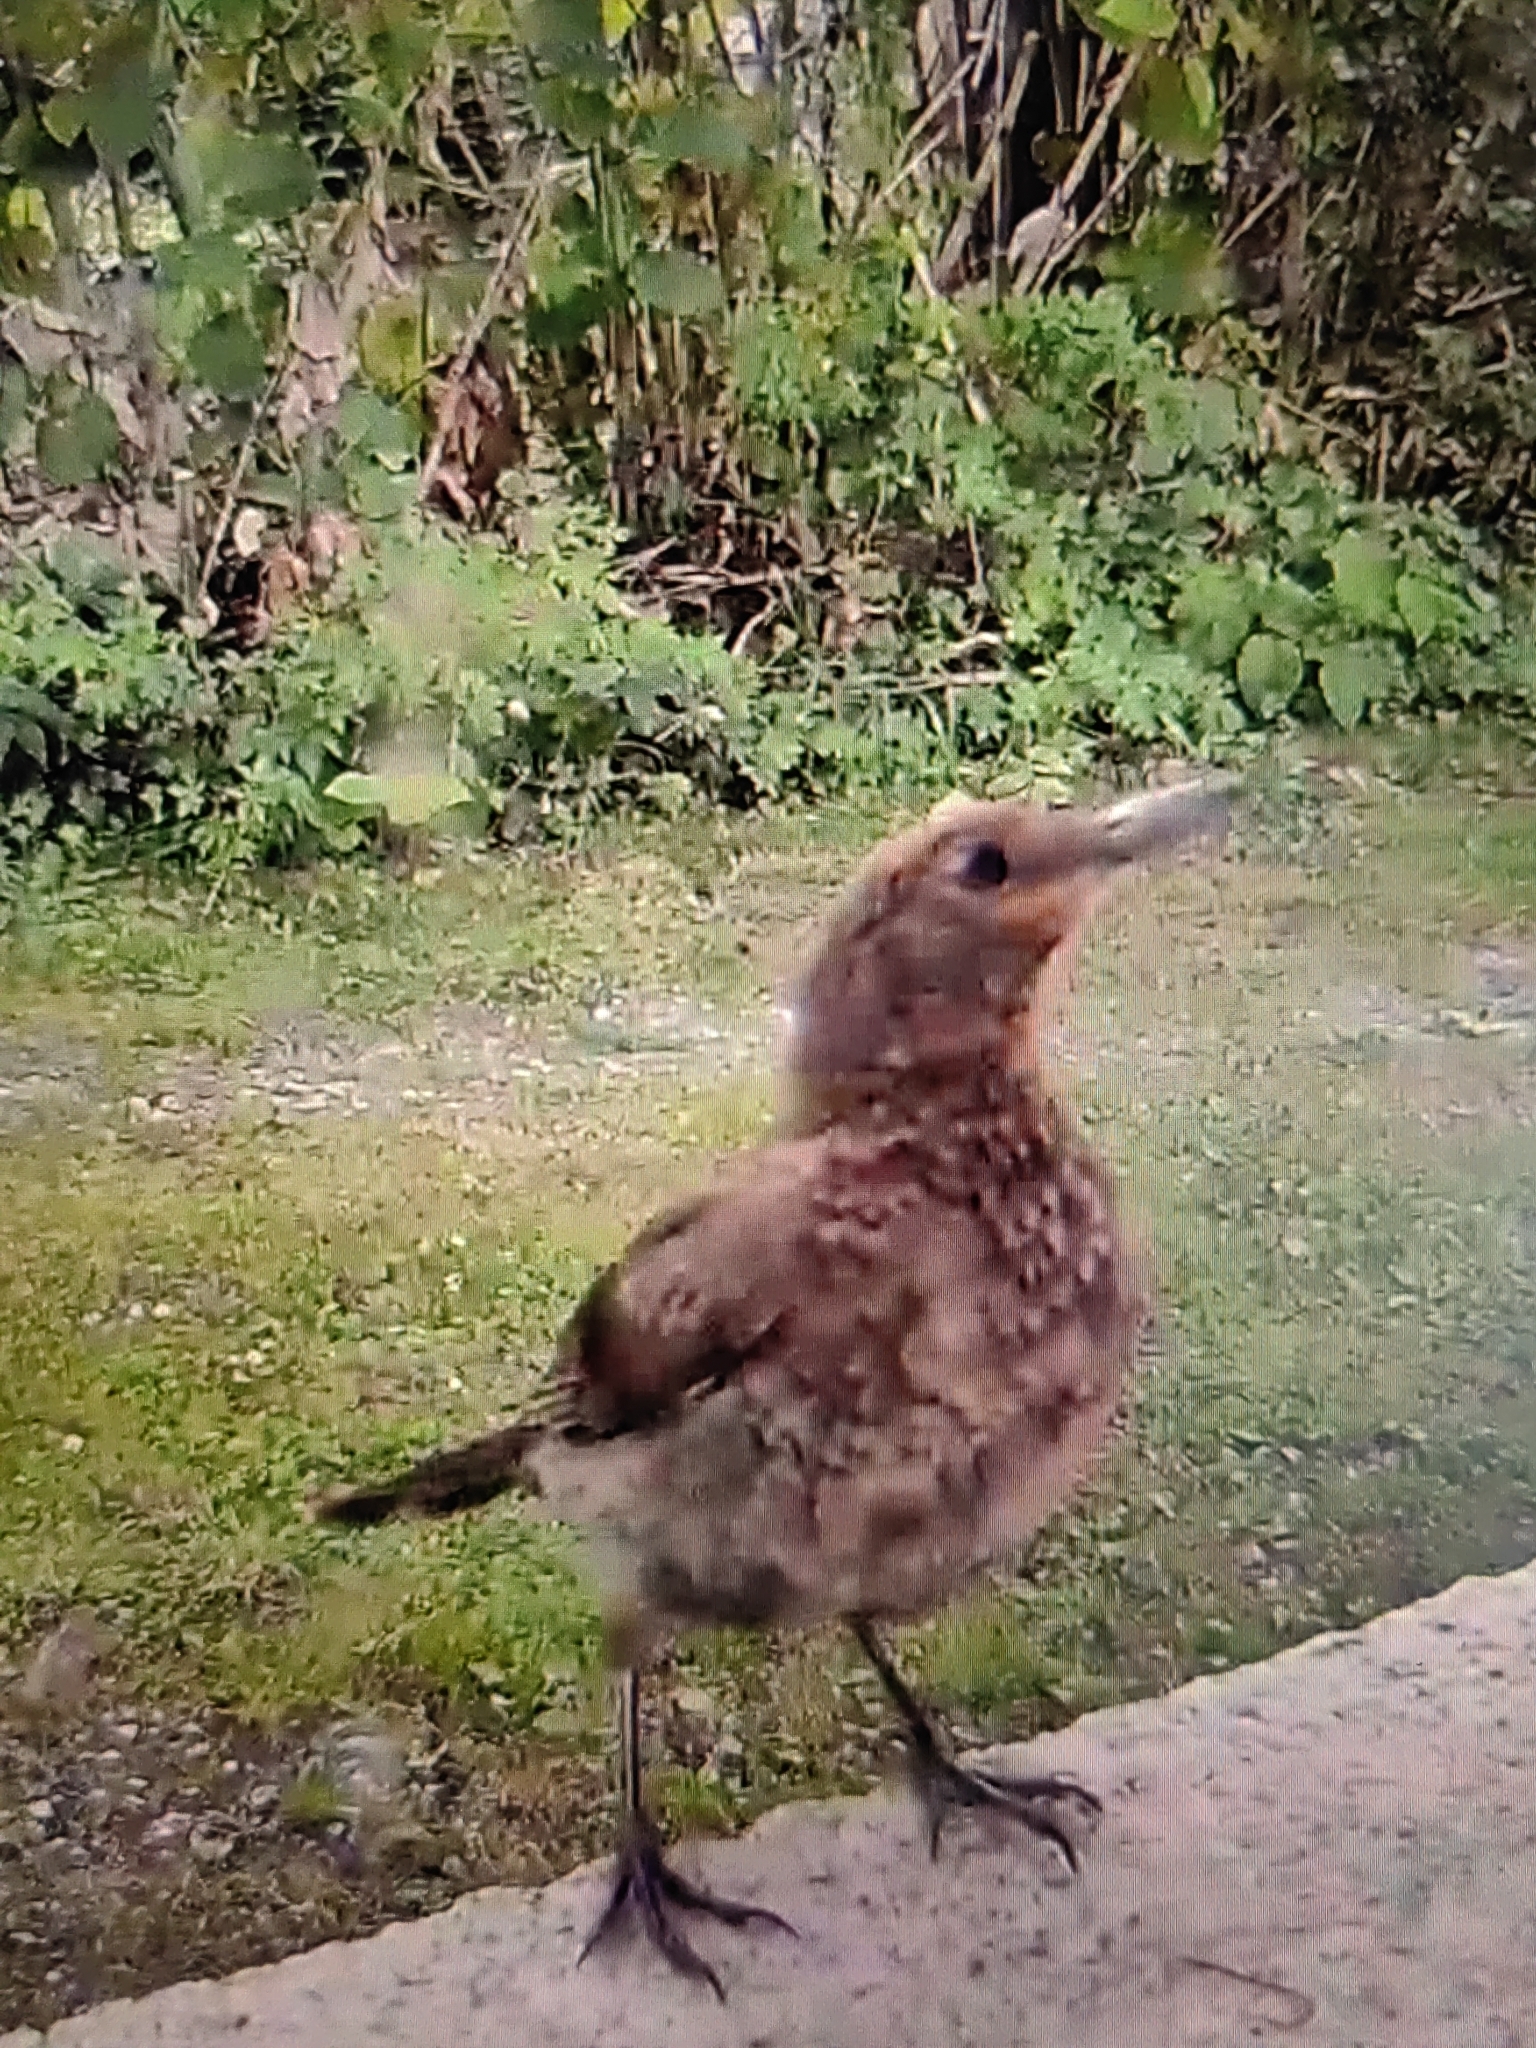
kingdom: Animalia
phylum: Chordata
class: Aves
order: Passeriformes
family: Turdidae
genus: Turdus
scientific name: Turdus merula
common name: Common blackbird
